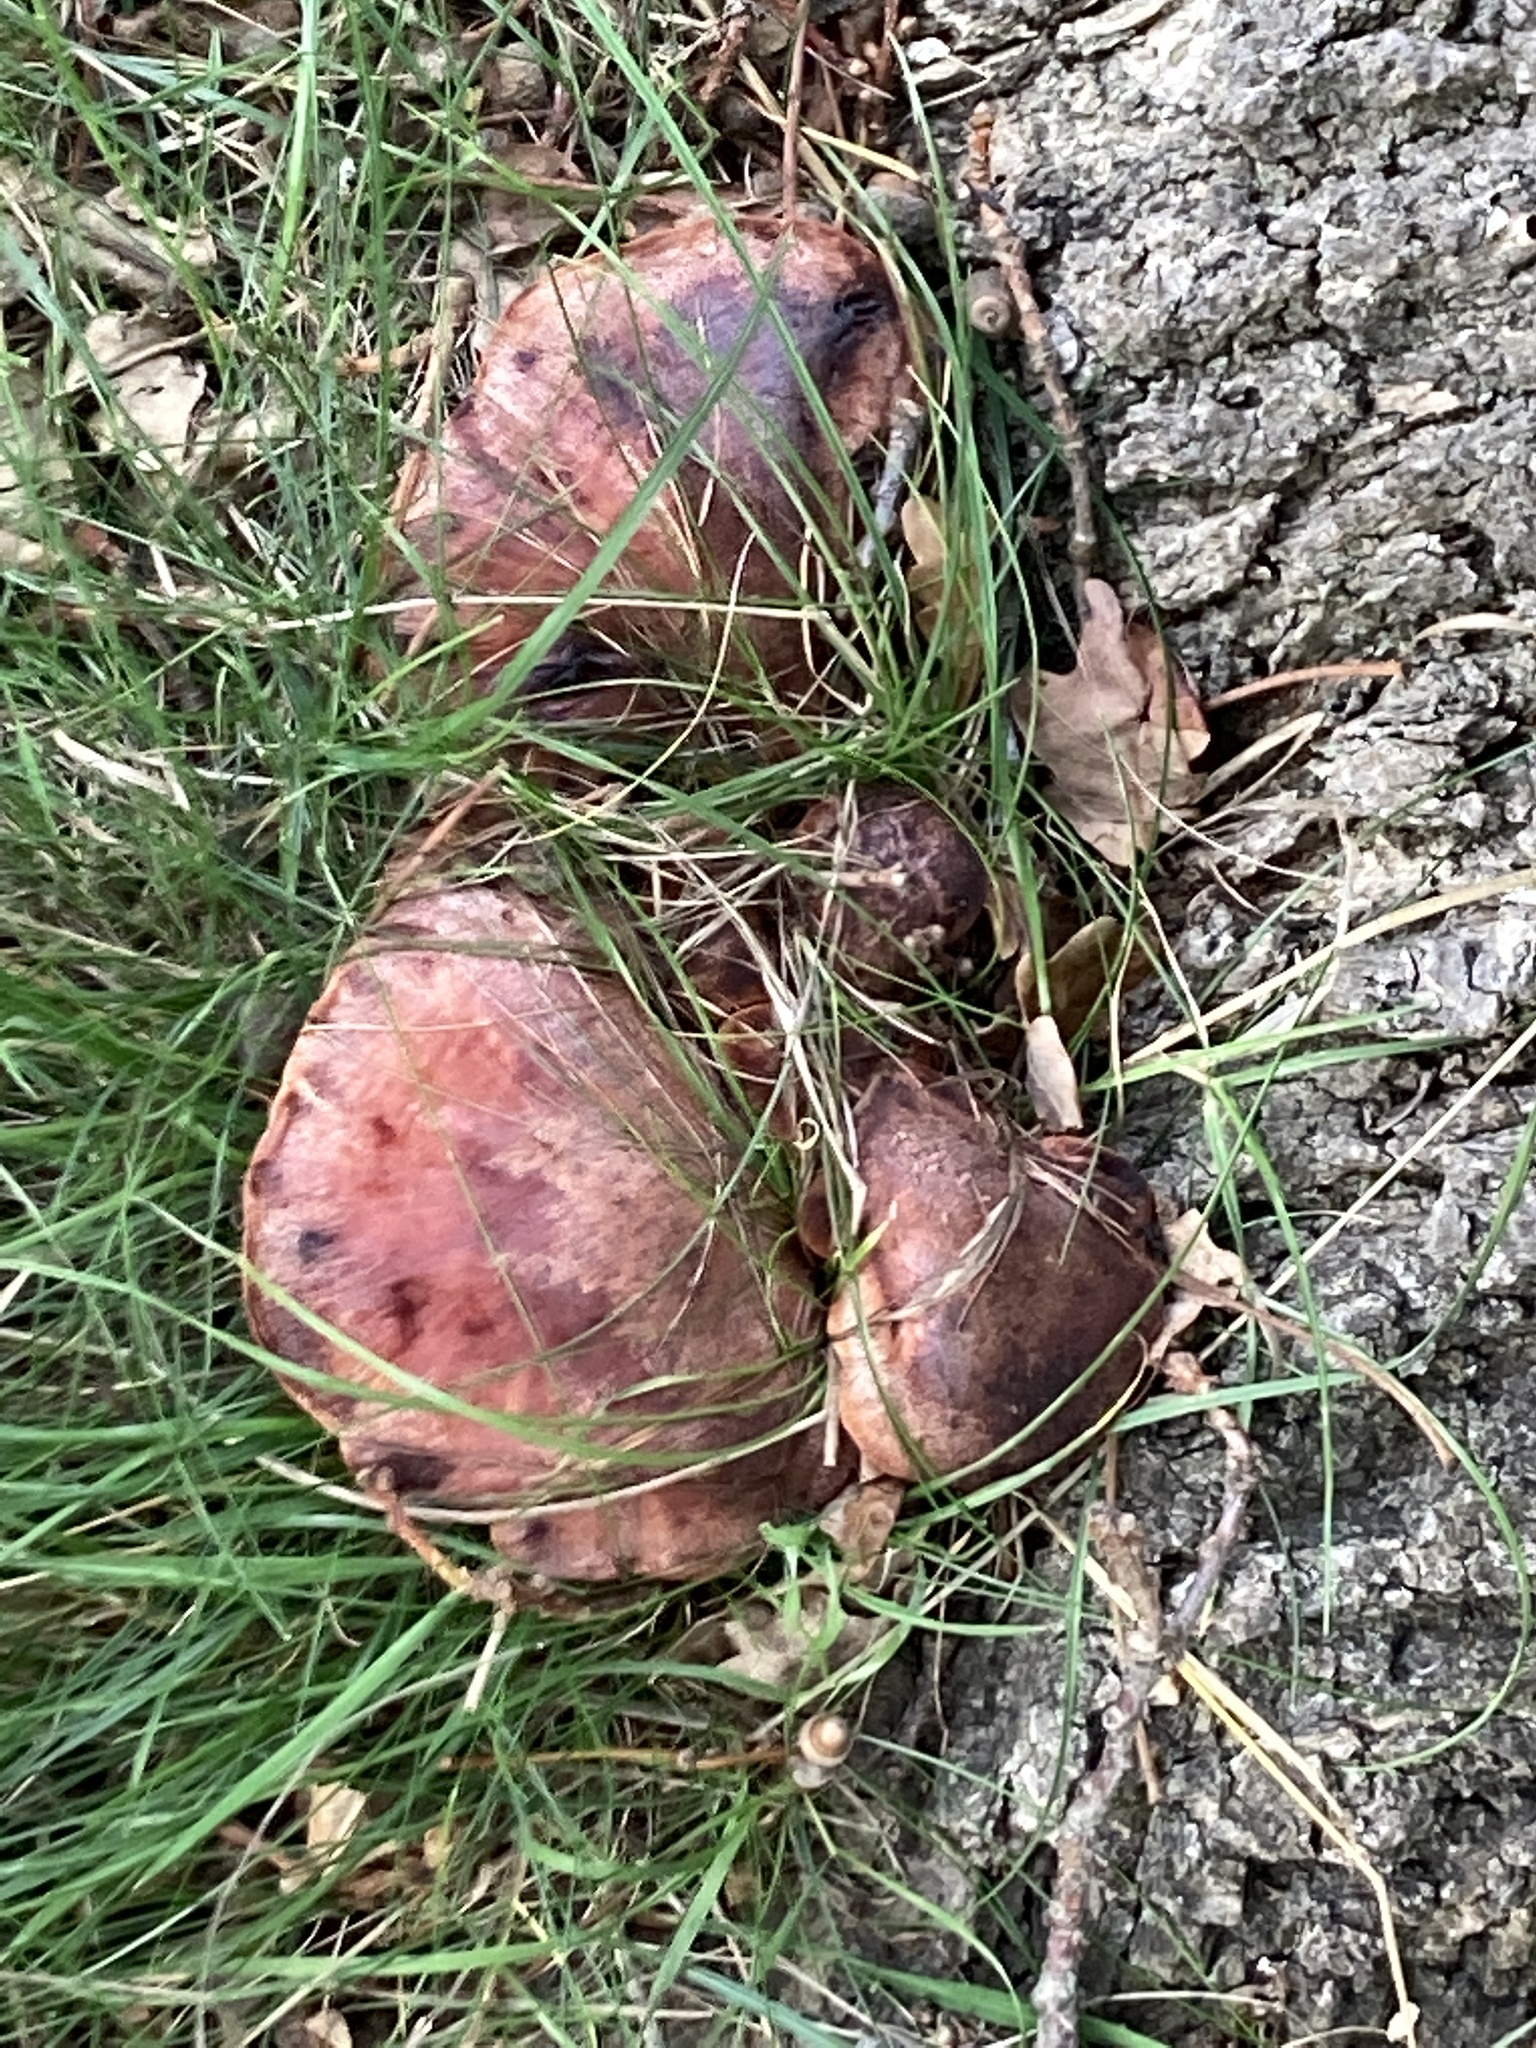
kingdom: Fungi
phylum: Basidiomycota
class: Agaricomycetes
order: Agaricales
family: Fistulinaceae
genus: Fistulina
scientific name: Fistulina hepatica
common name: Beef-steak fungus
